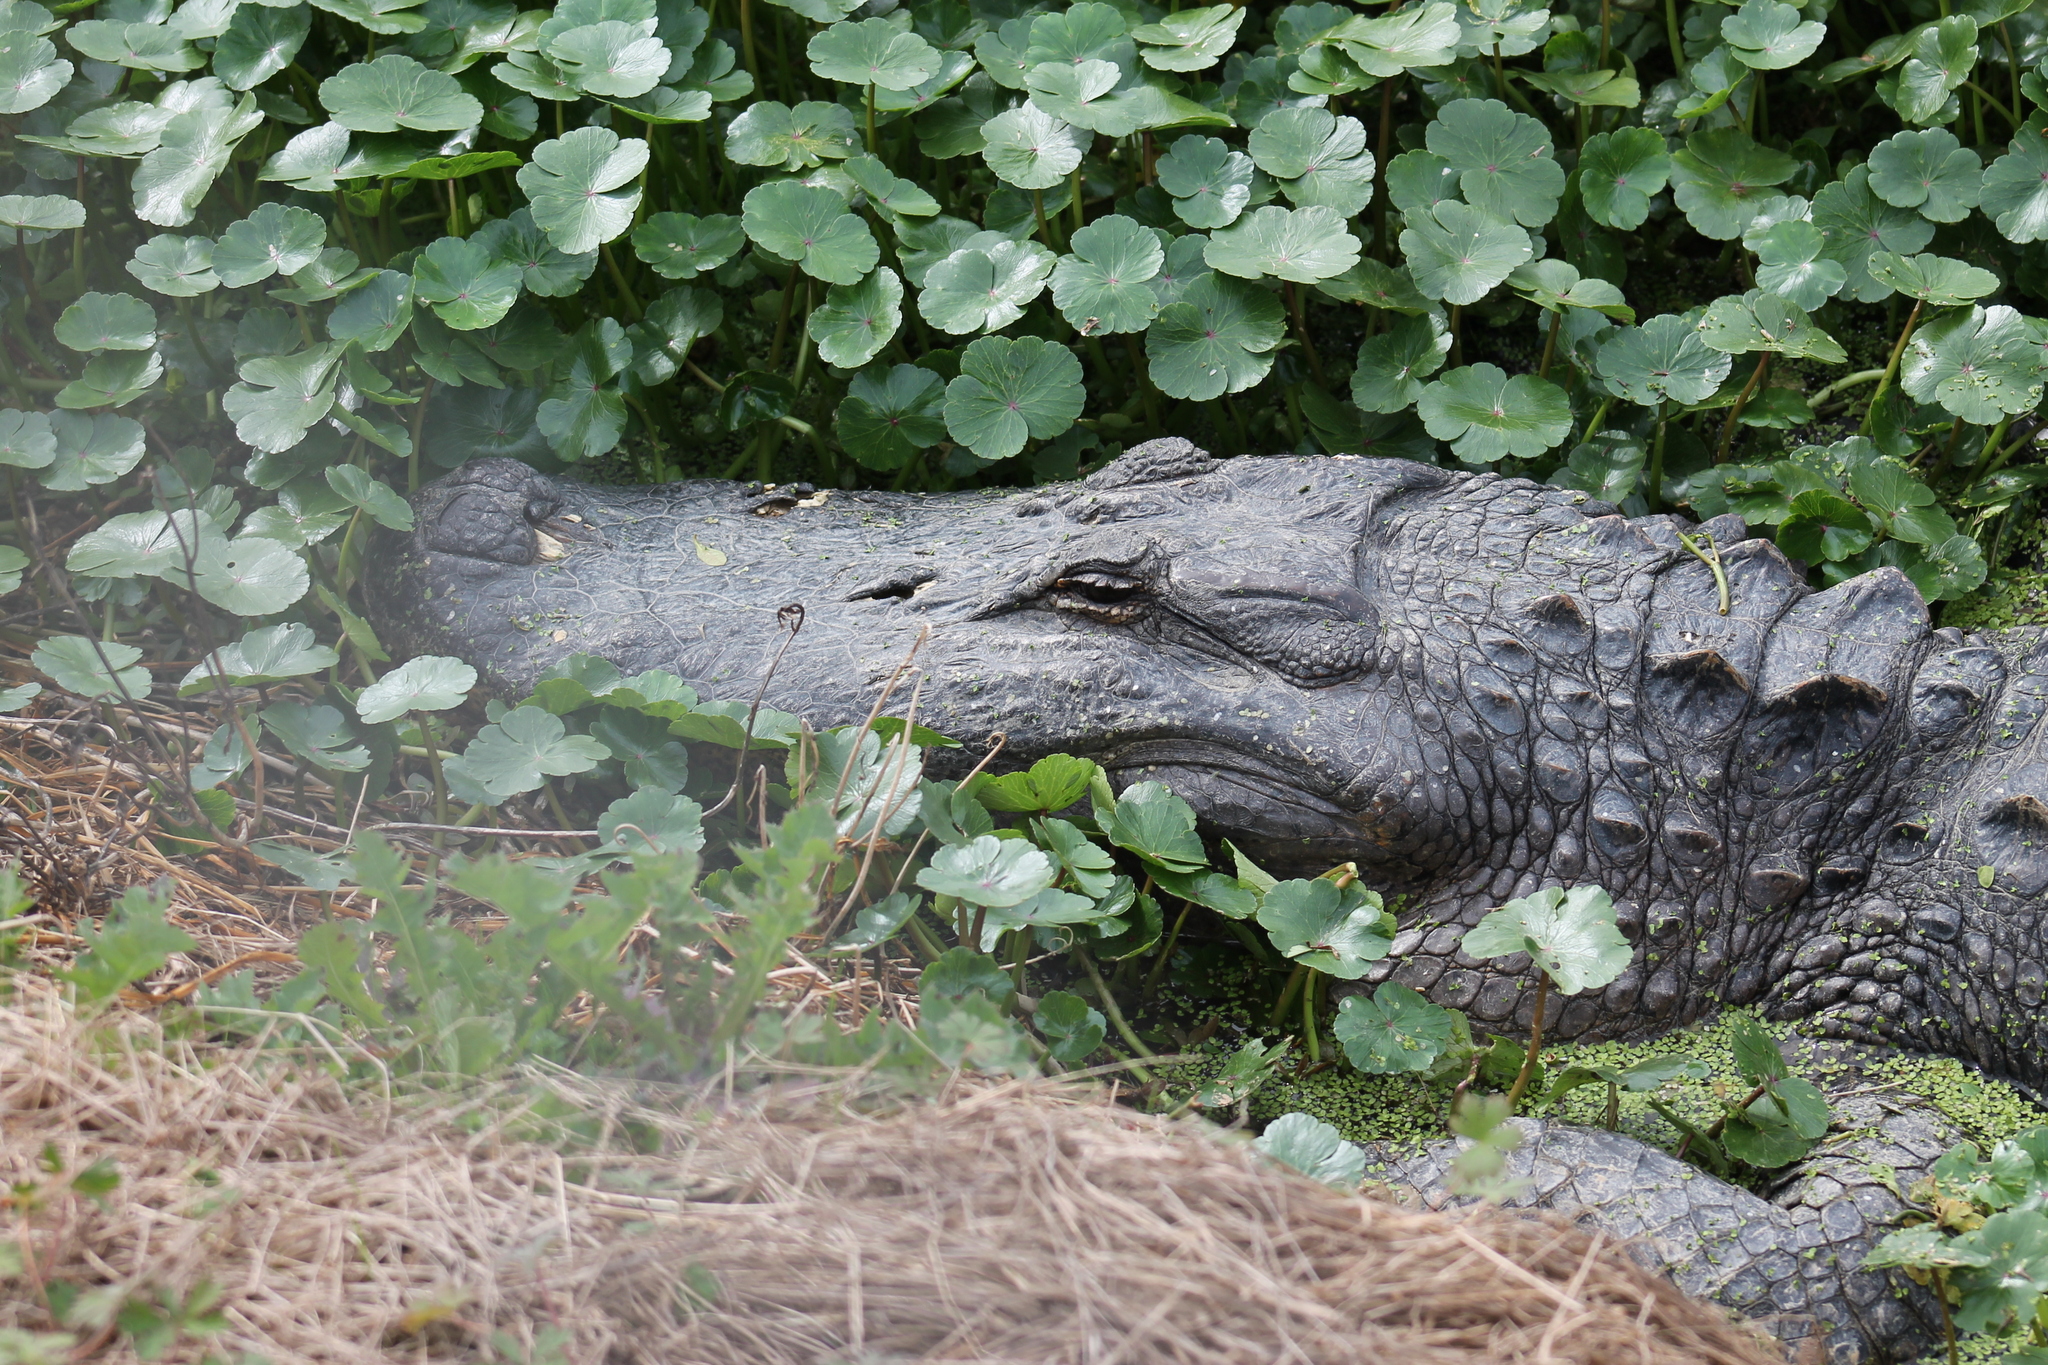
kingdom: Animalia
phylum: Chordata
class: Crocodylia
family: Alligatoridae
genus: Alligator
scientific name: Alligator mississippiensis
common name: American alligator
